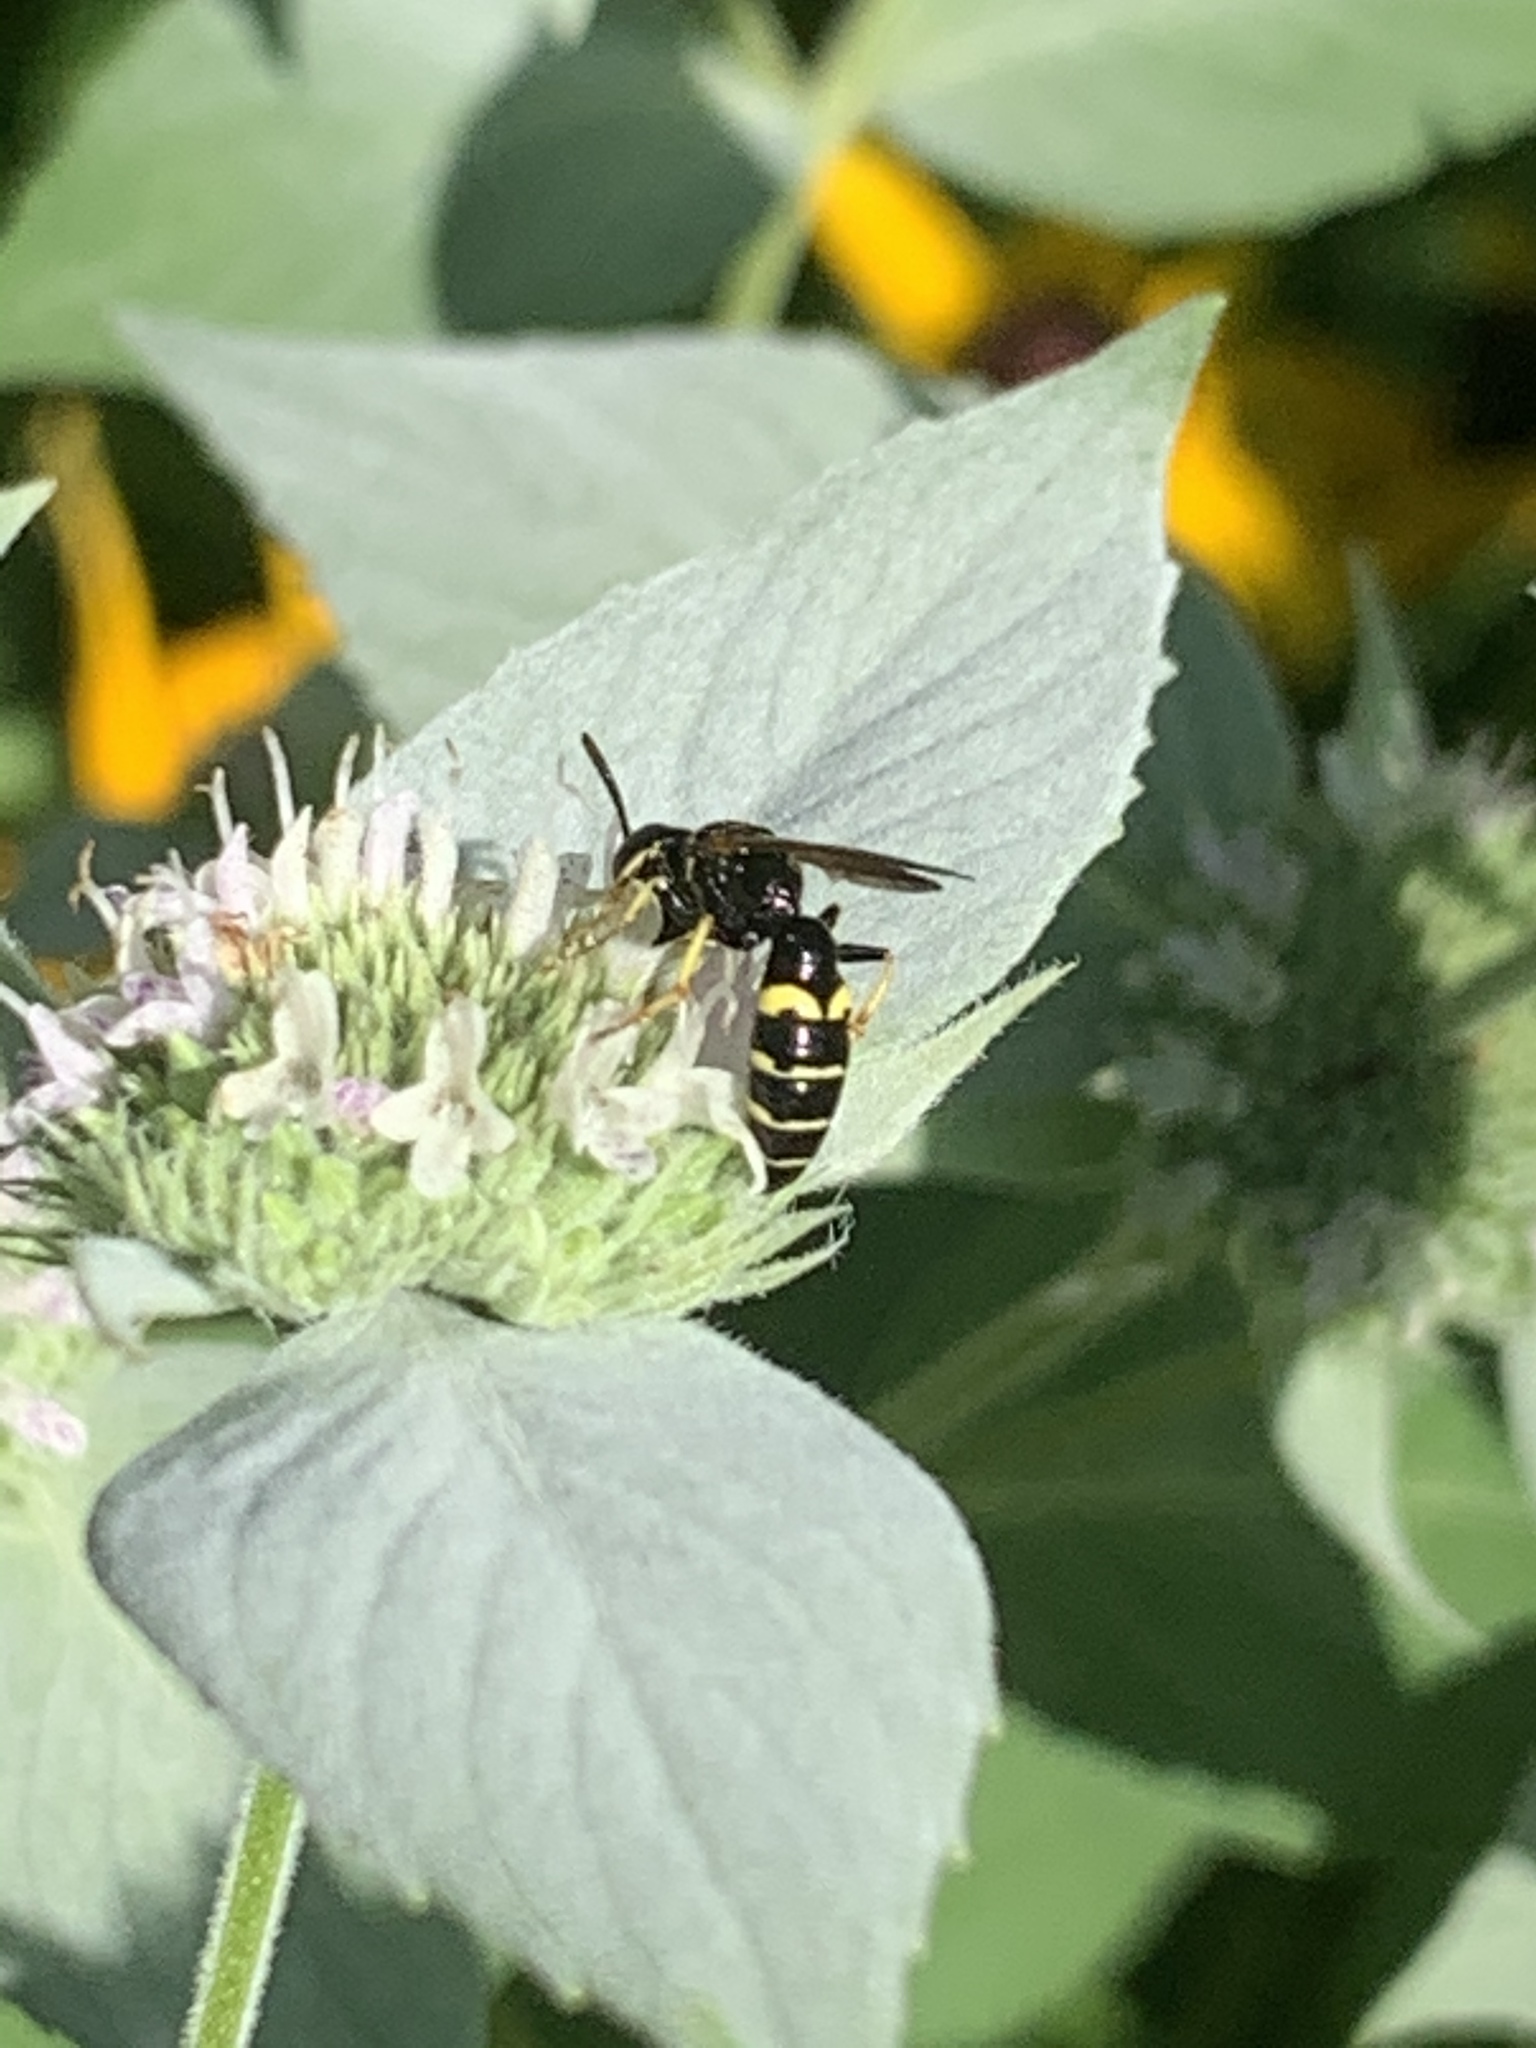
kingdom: Animalia
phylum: Arthropoda
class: Insecta
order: Hymenoptera
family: Crabronidae
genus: Philanthus
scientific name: Philanthus bilunatus
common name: Two moons beewolf
